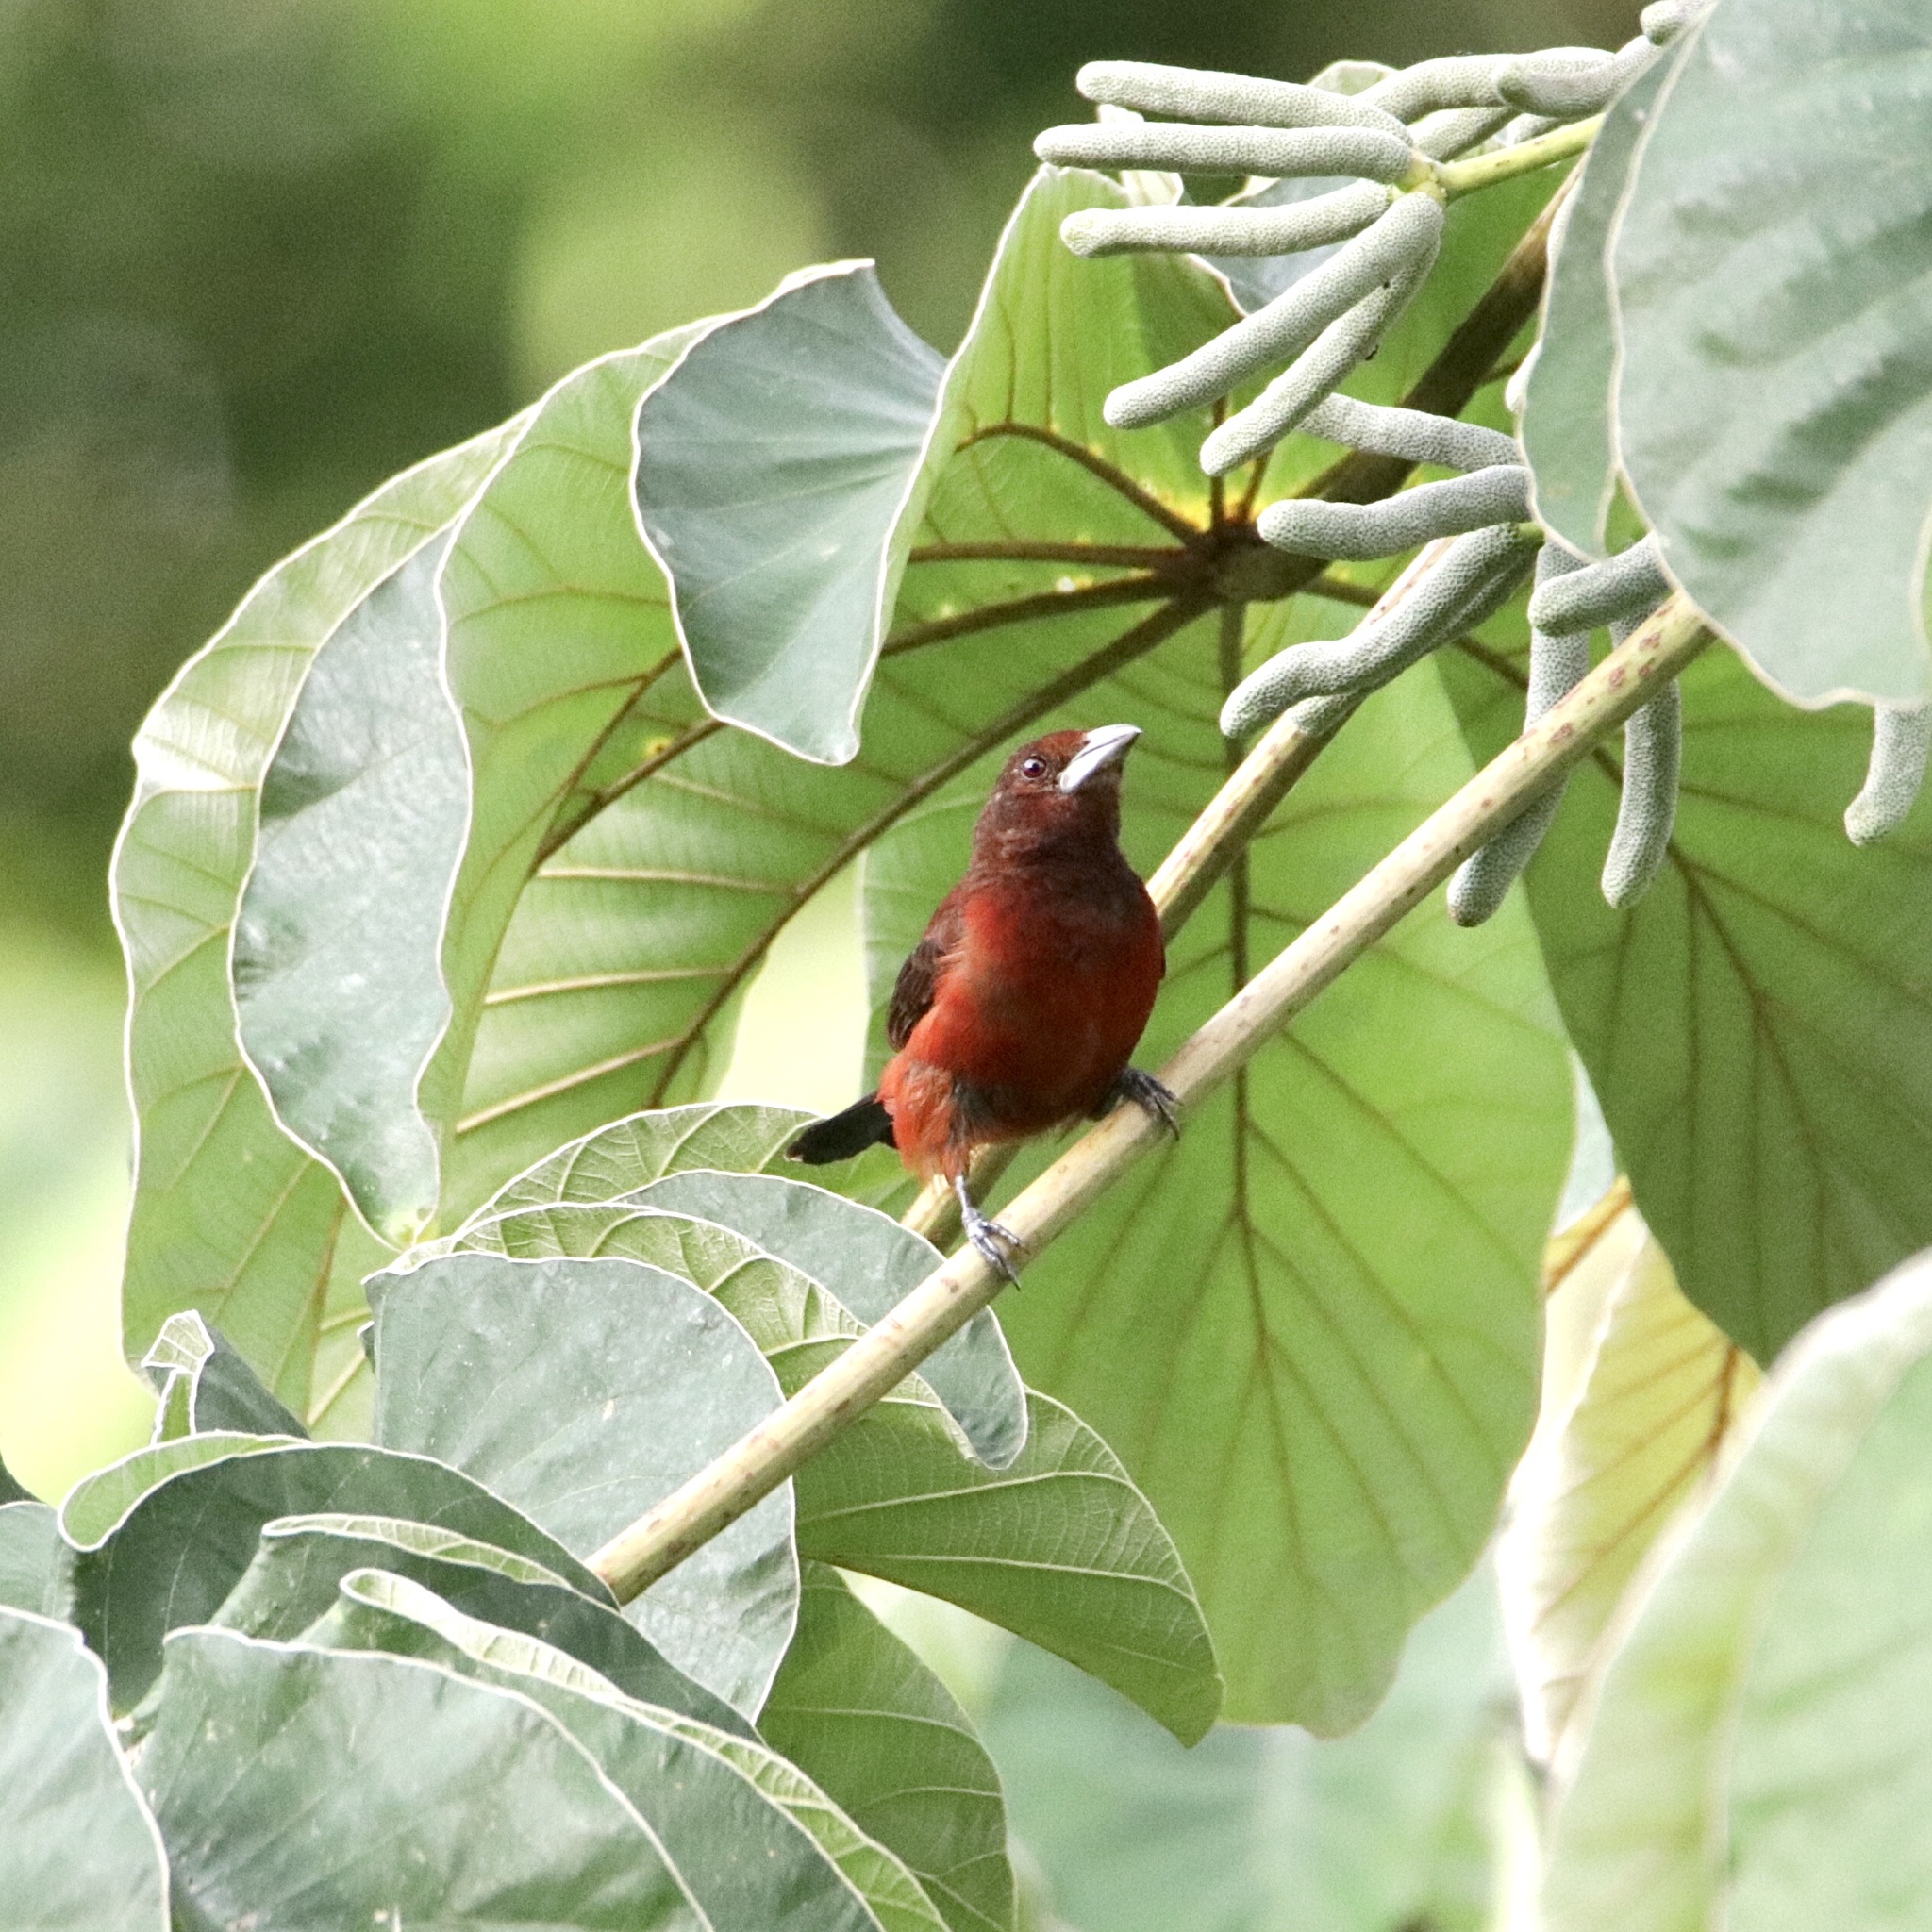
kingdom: Animalia
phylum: Chordata
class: Aves
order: Passeriformes
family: Thraupidae
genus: Ramphocelus
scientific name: Ramphocelus dimidiatus
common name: Crimson-backed tanager
